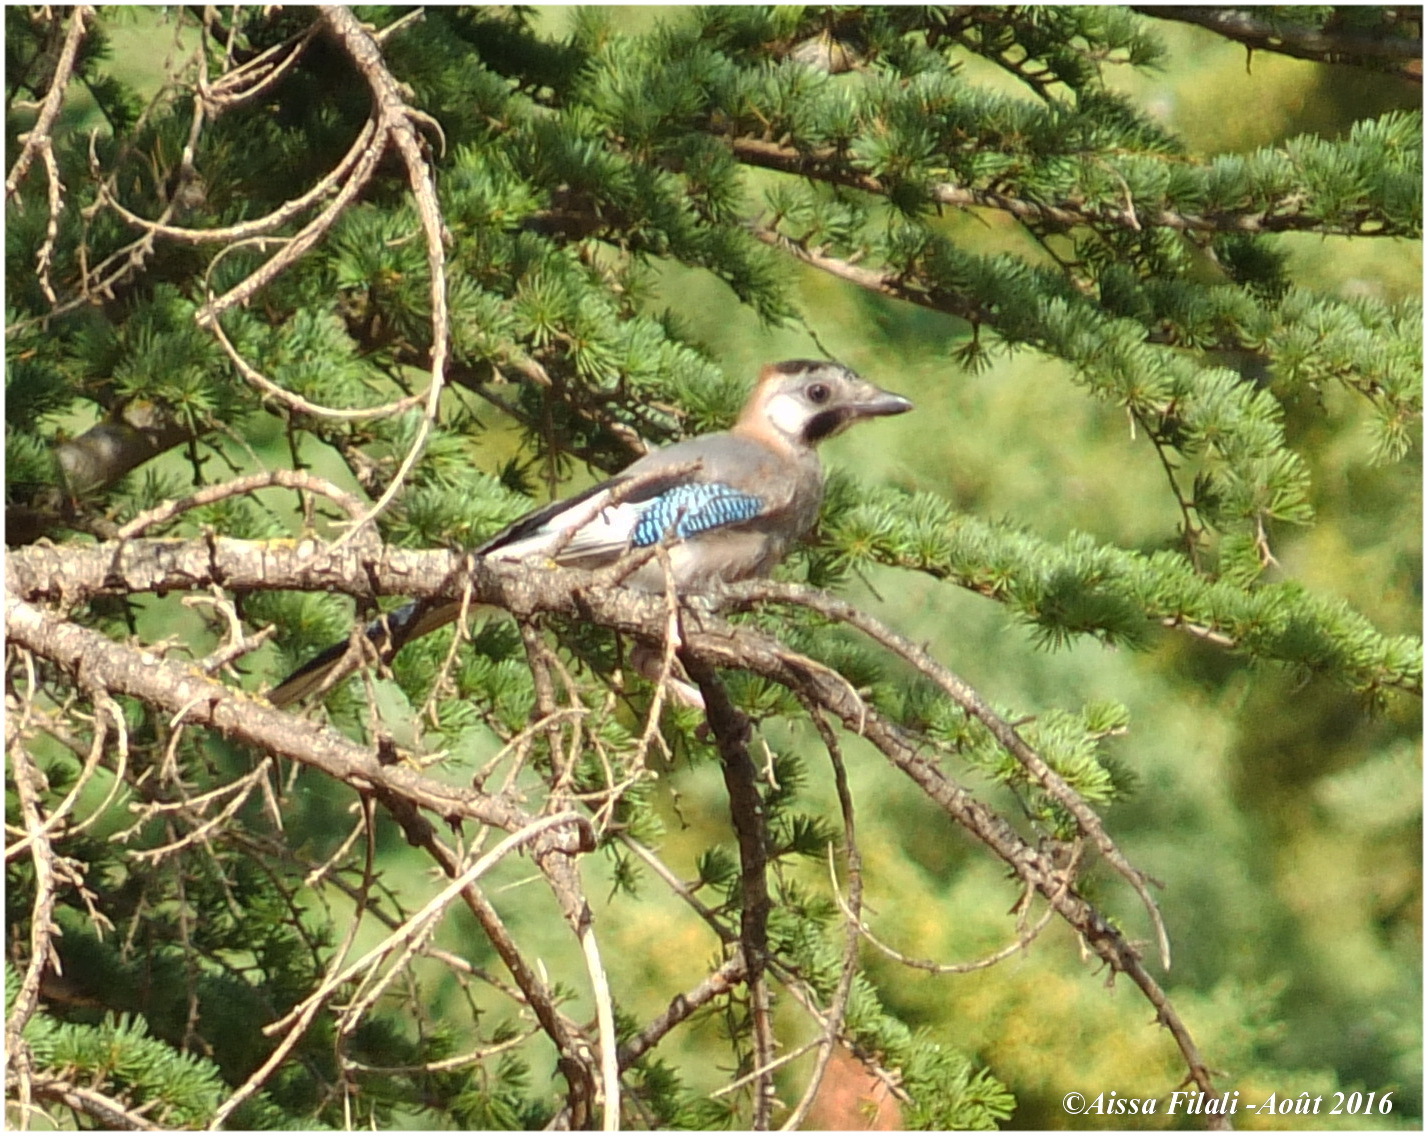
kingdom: Animalia
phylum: Chordata
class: Aves
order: Passeriformes
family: Corvidae
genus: Garrulus
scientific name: Garrulus glandarius
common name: Eurasian jay
